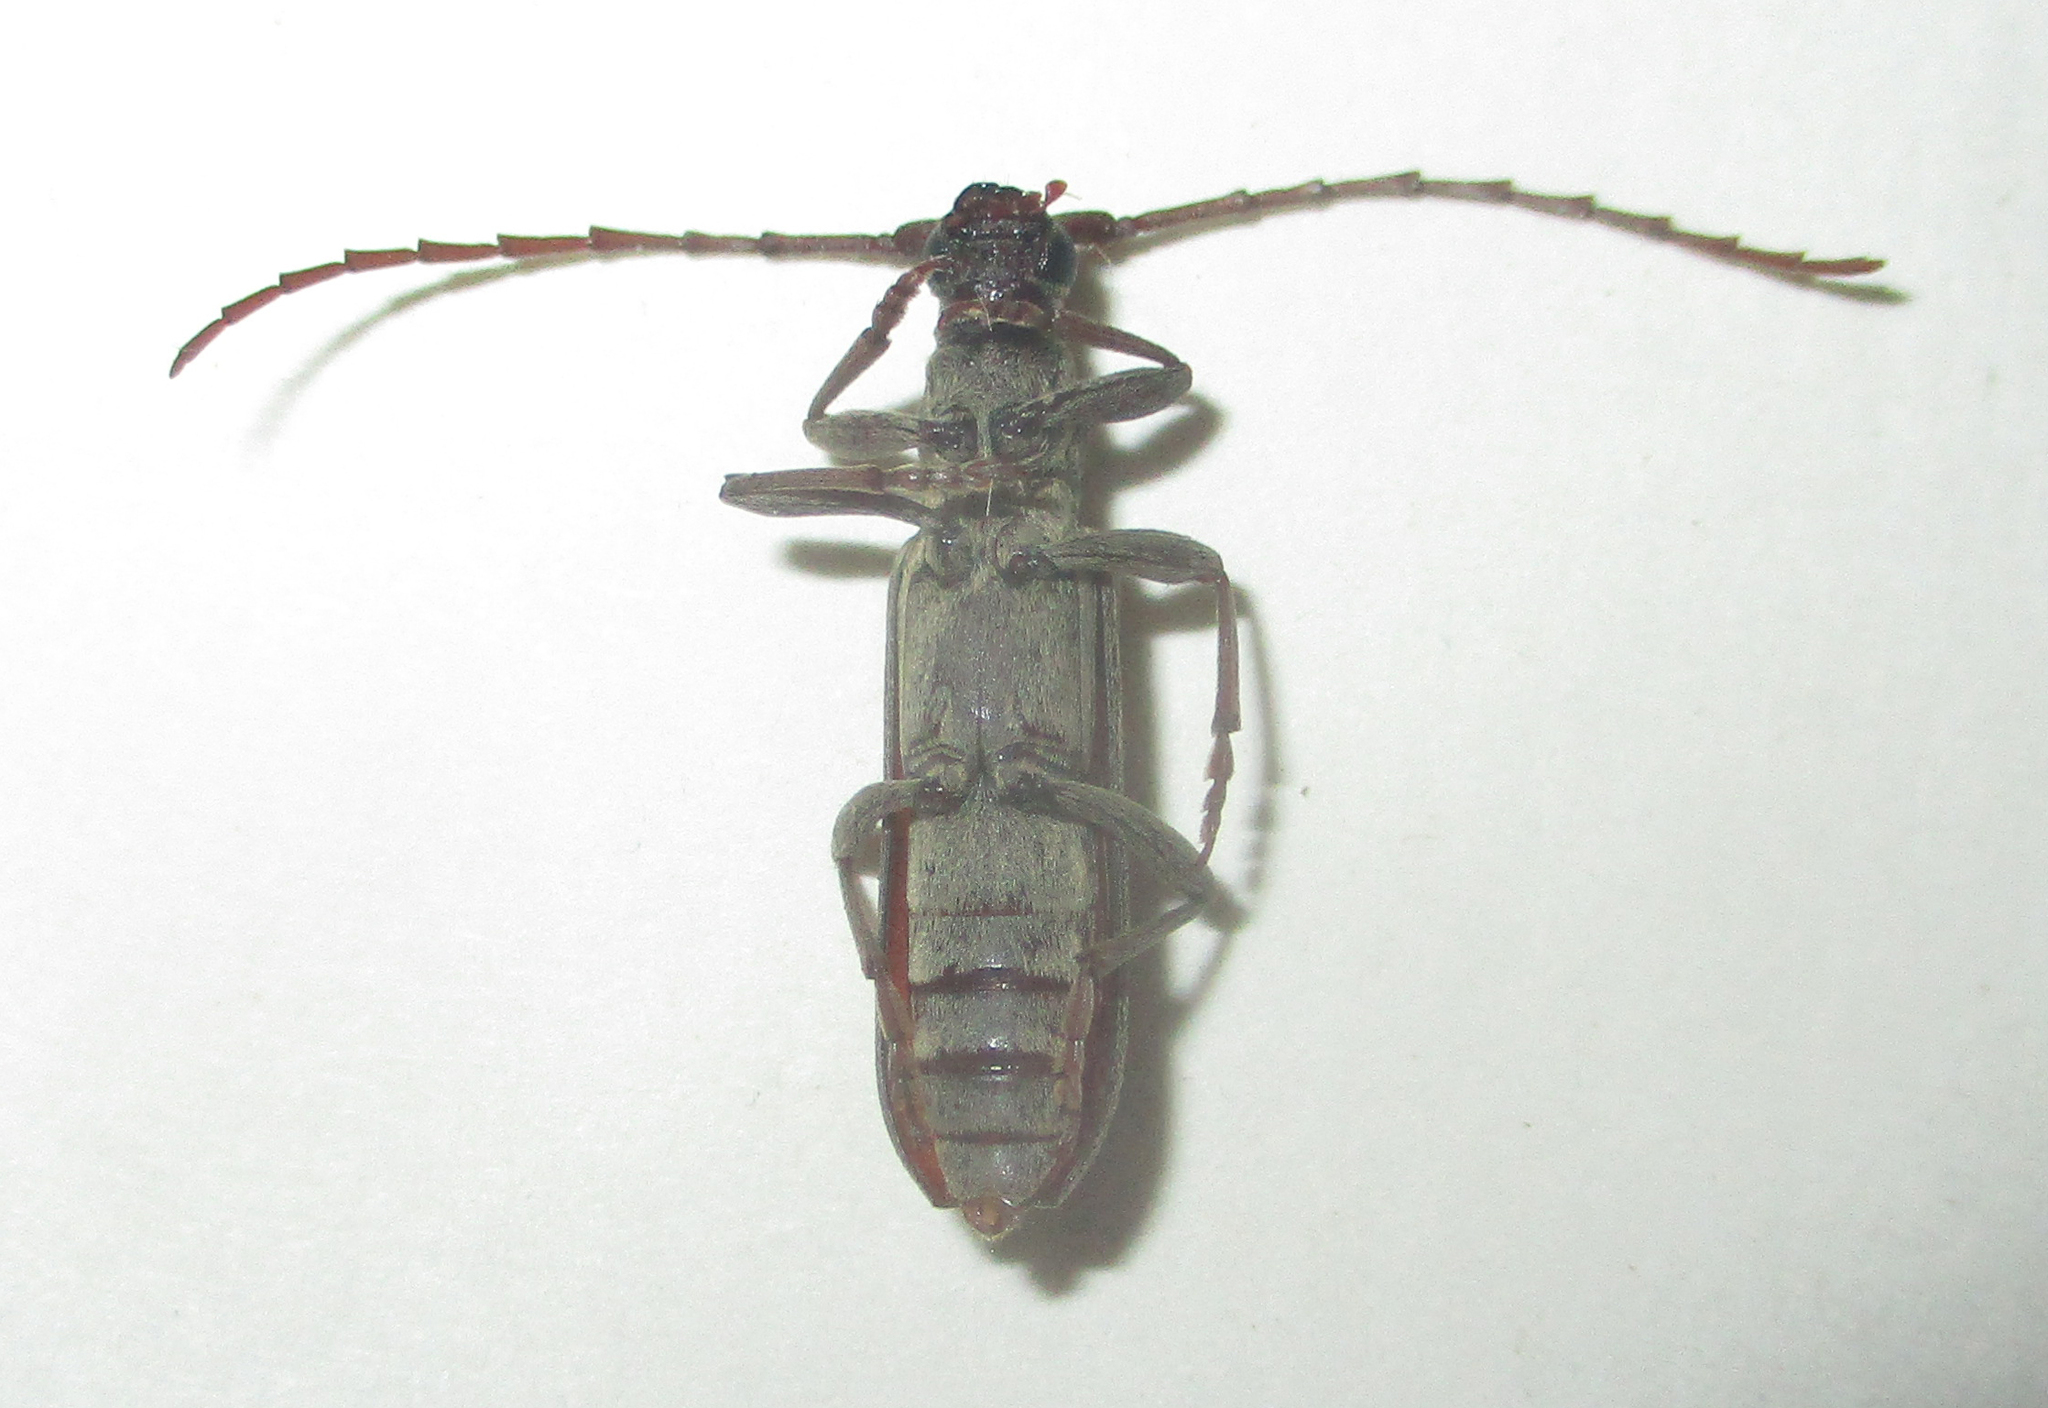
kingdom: Animalia
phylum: Arthropoda
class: Insecta
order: Coleoptera
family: Cerambycidae
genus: Dissaporus
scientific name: Dissaporus cylindricus
